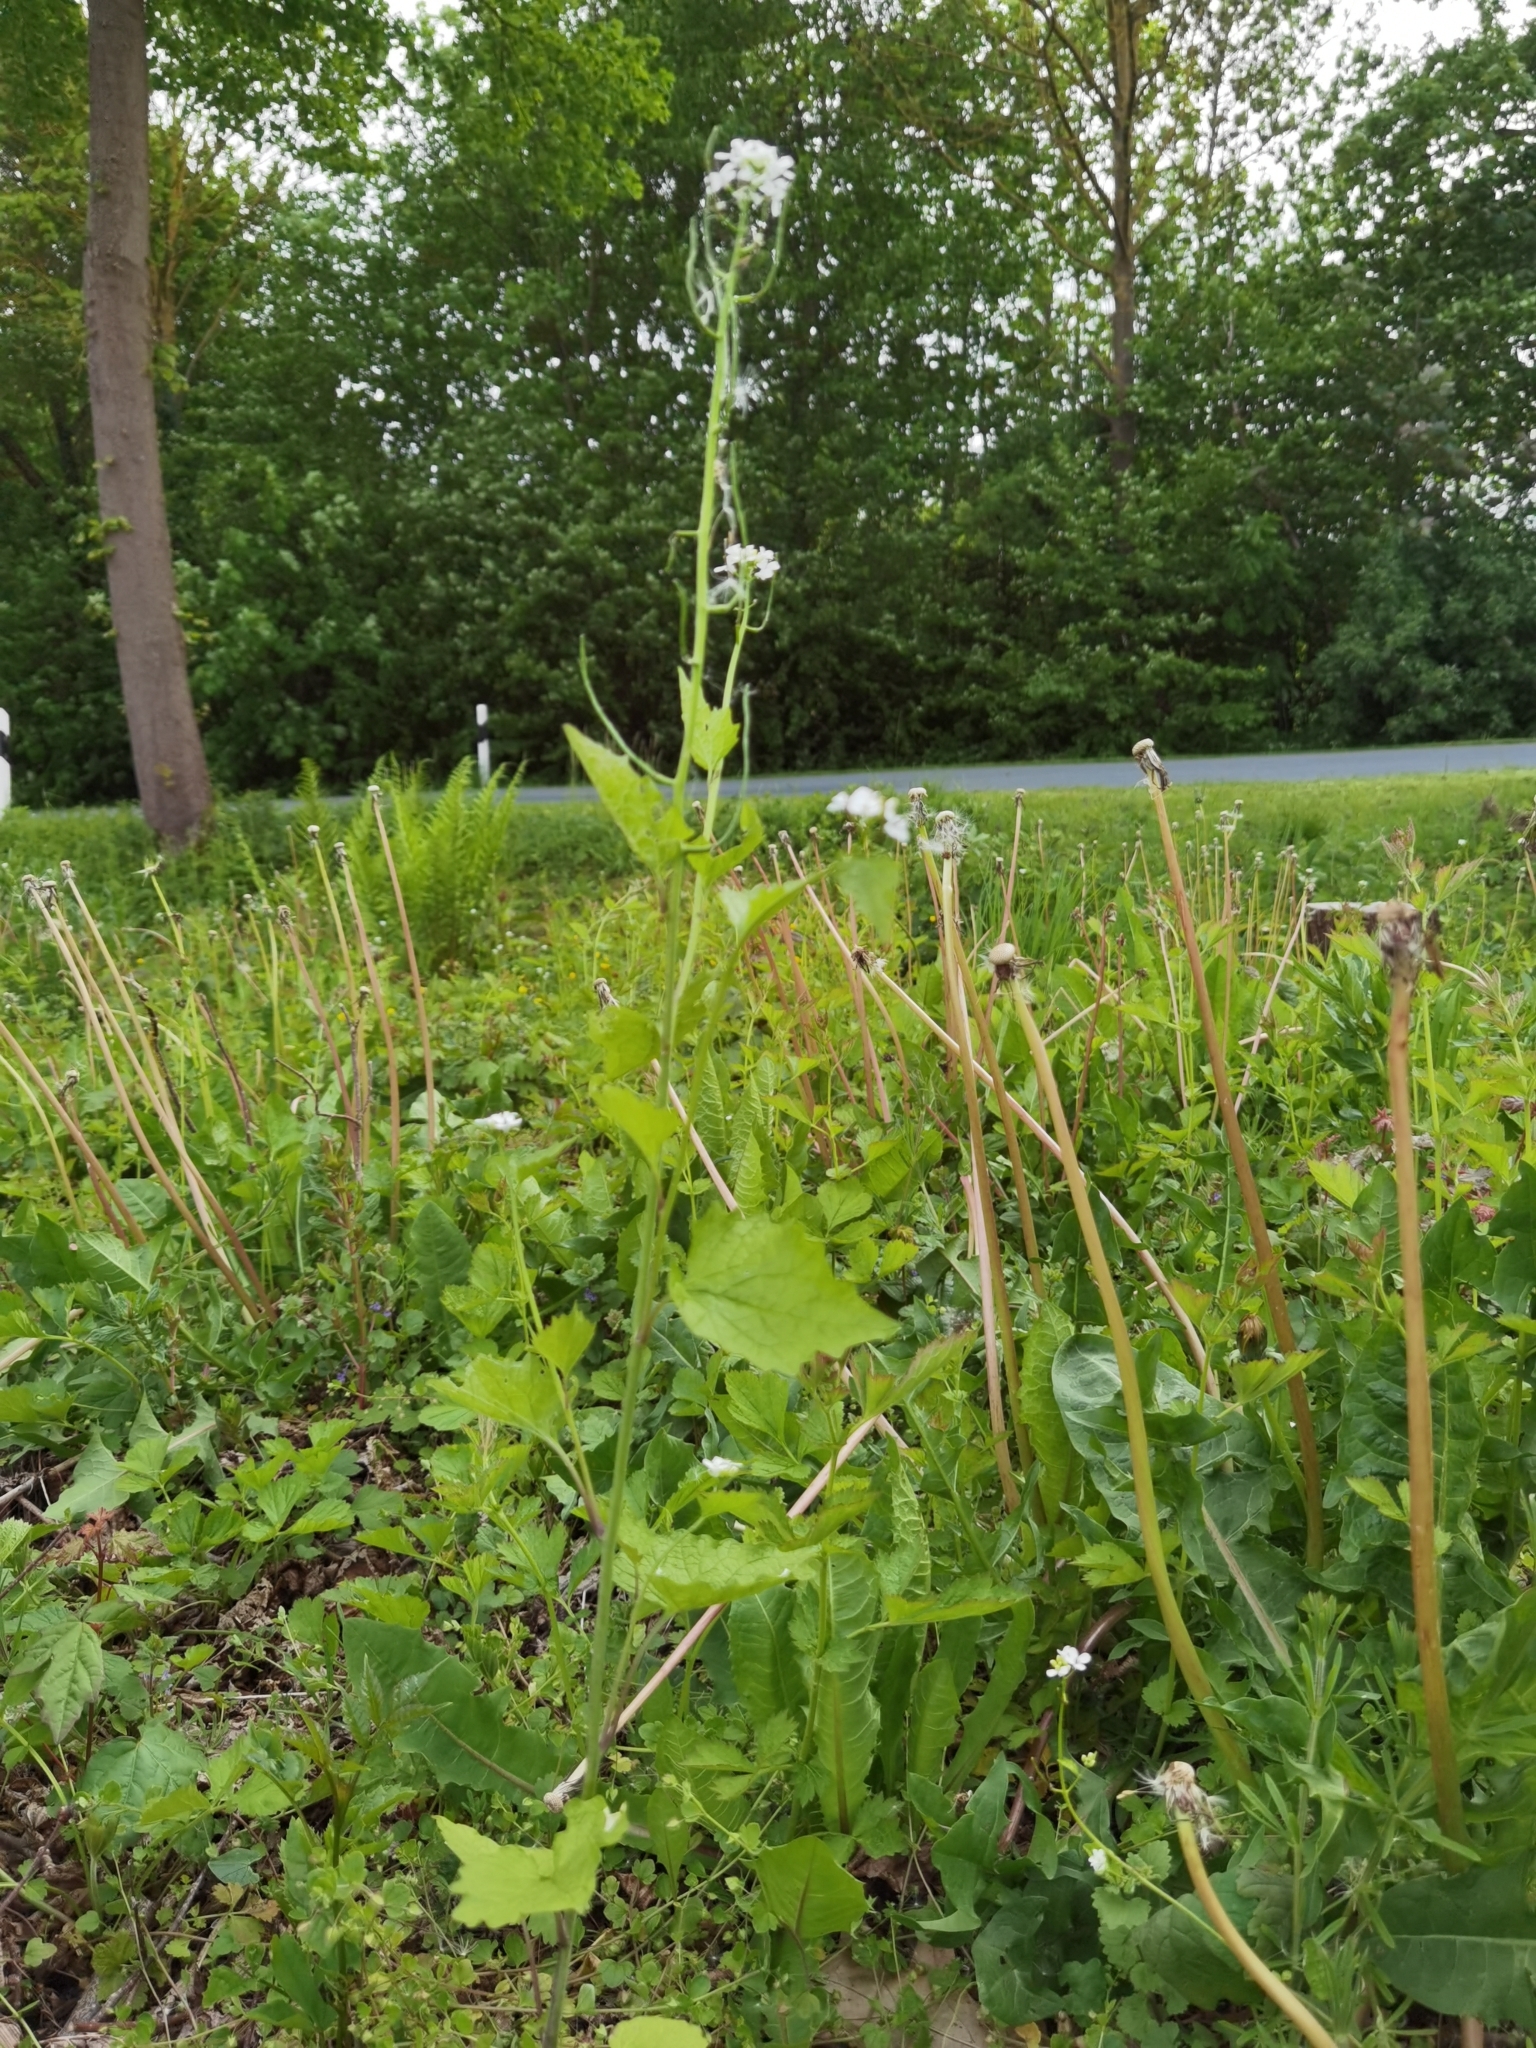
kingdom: Plantae
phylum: Tracheophyta
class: Magnoliopsida
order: Brassicales
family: Brassicaceae
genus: Alliaria
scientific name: Alliaria petiolata
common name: Garlic mustard
